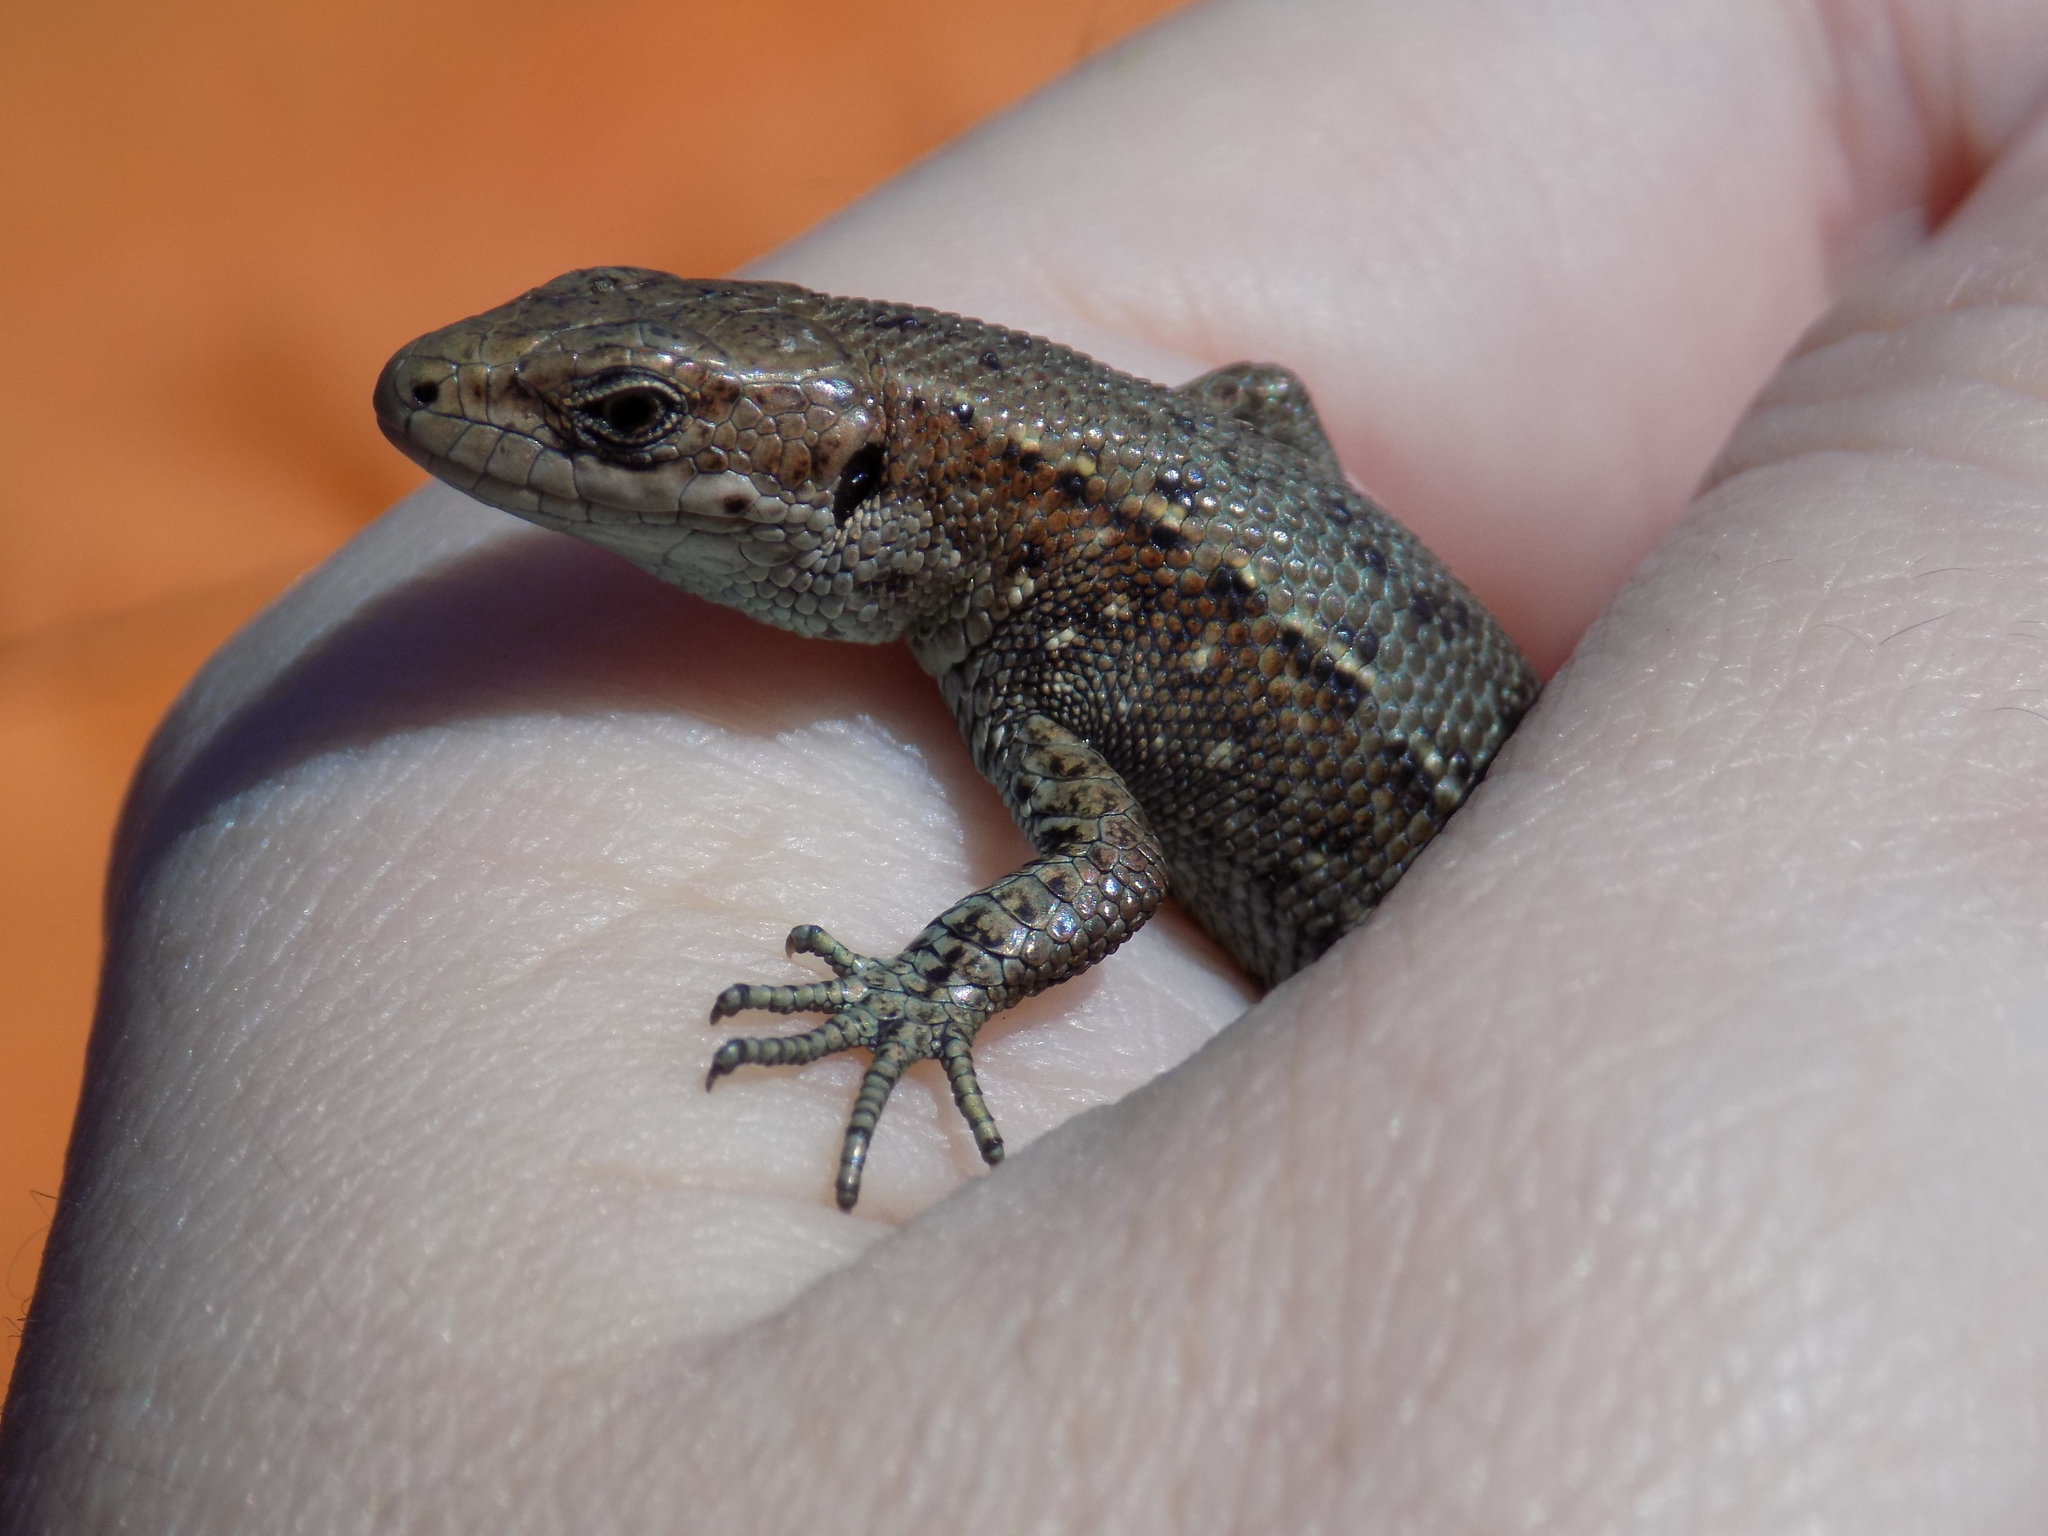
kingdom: Animalia
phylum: Chordata
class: Squamata
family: Lacertidae
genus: Zootoca
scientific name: Zootoca vivipara
